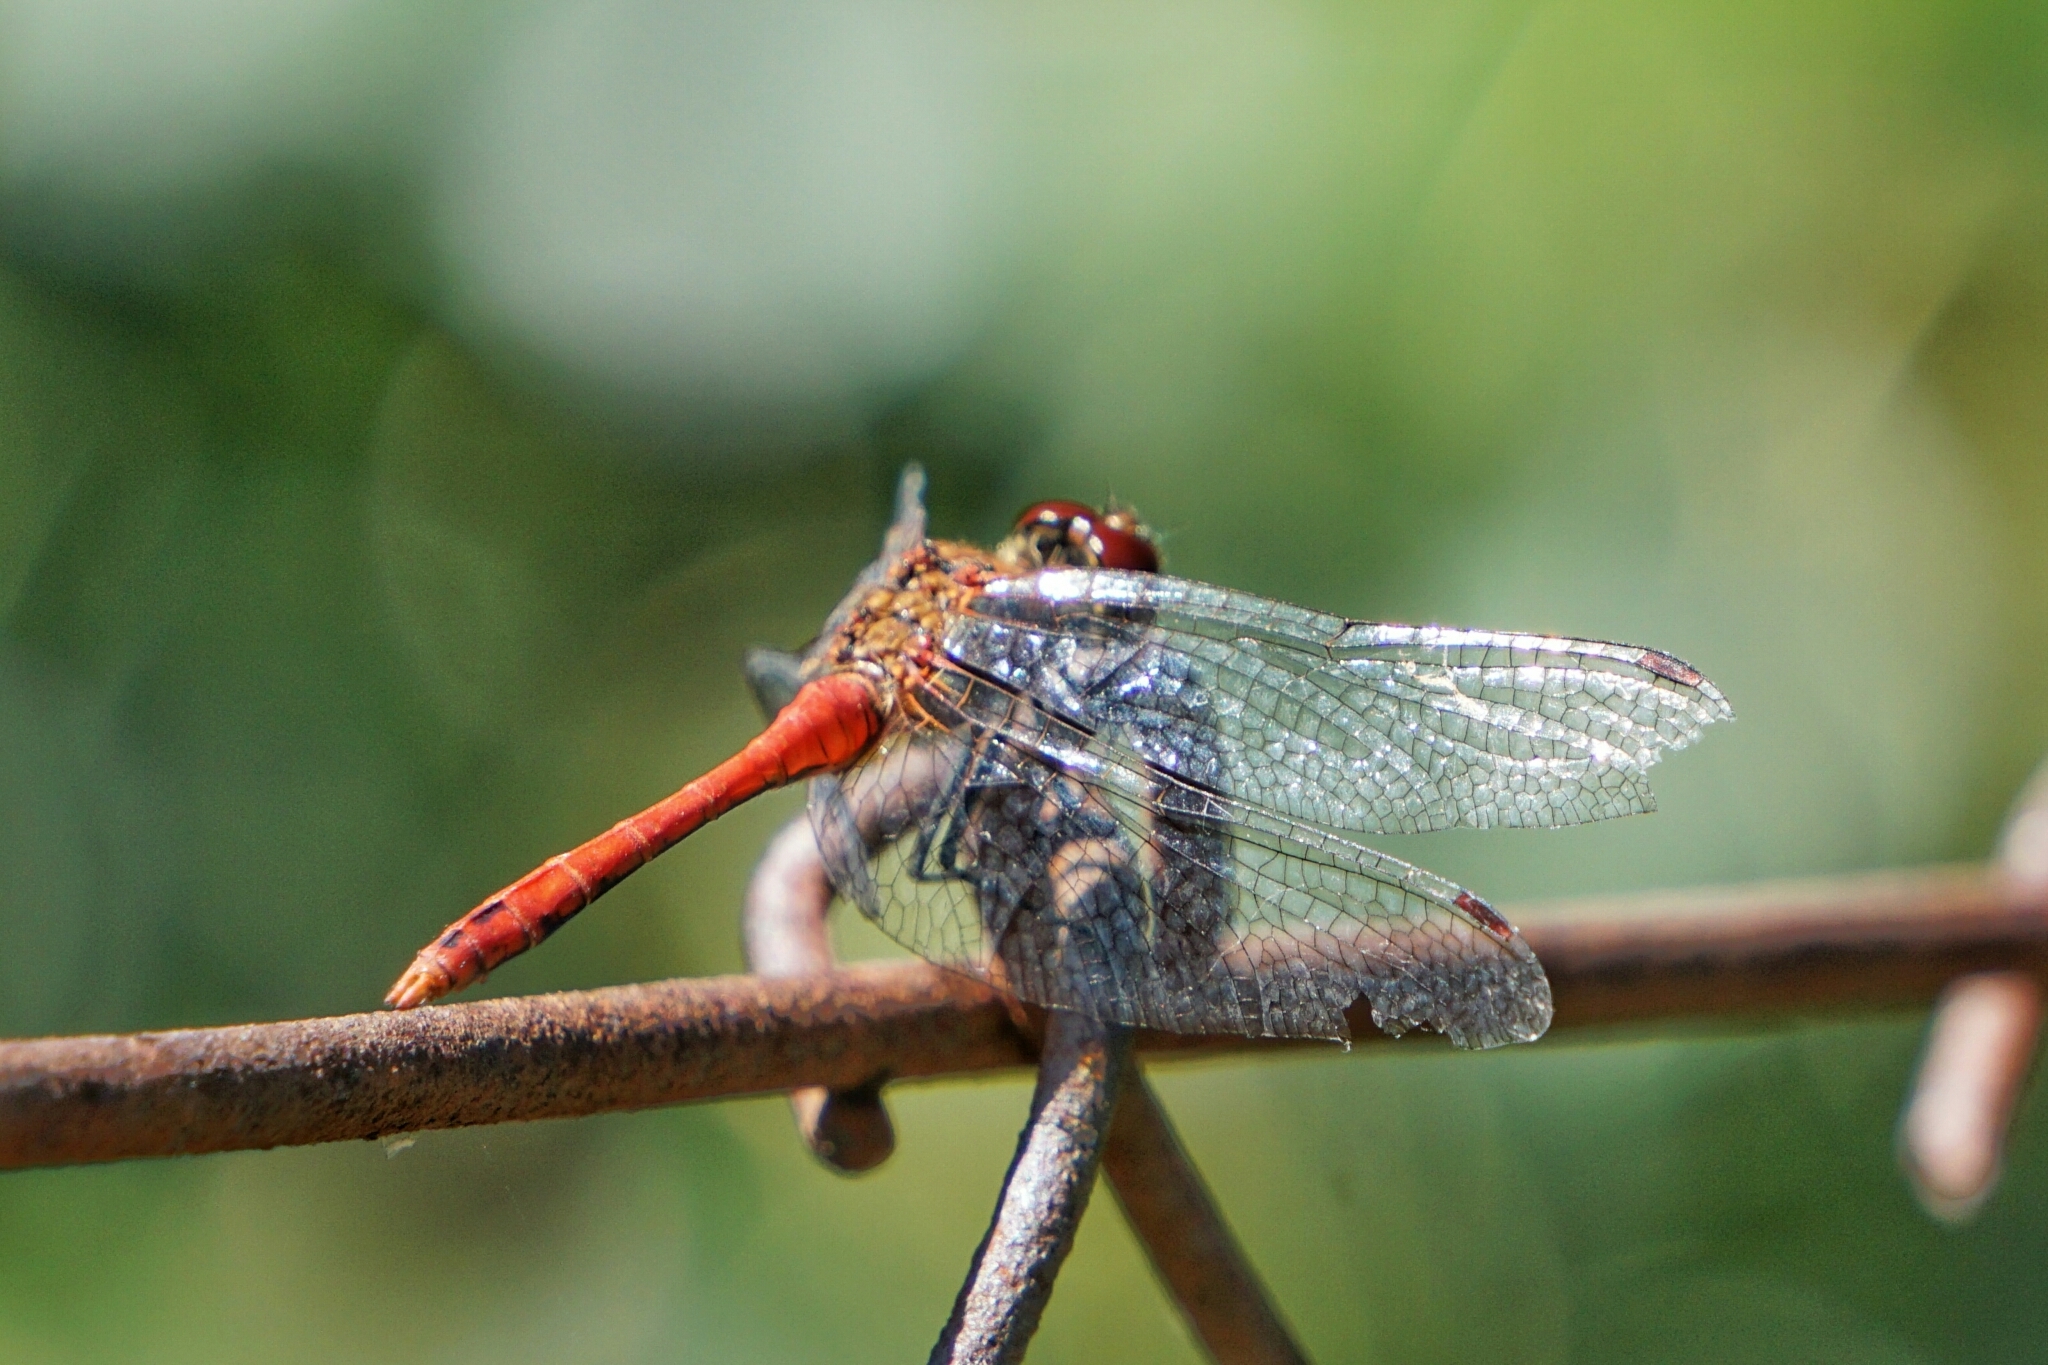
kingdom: Animalia
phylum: Arthropoda
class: Insecta
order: Odonata
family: Libellulidae
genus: Sympetrum
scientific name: Sympetrum sanguineum
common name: Ruddy darter
